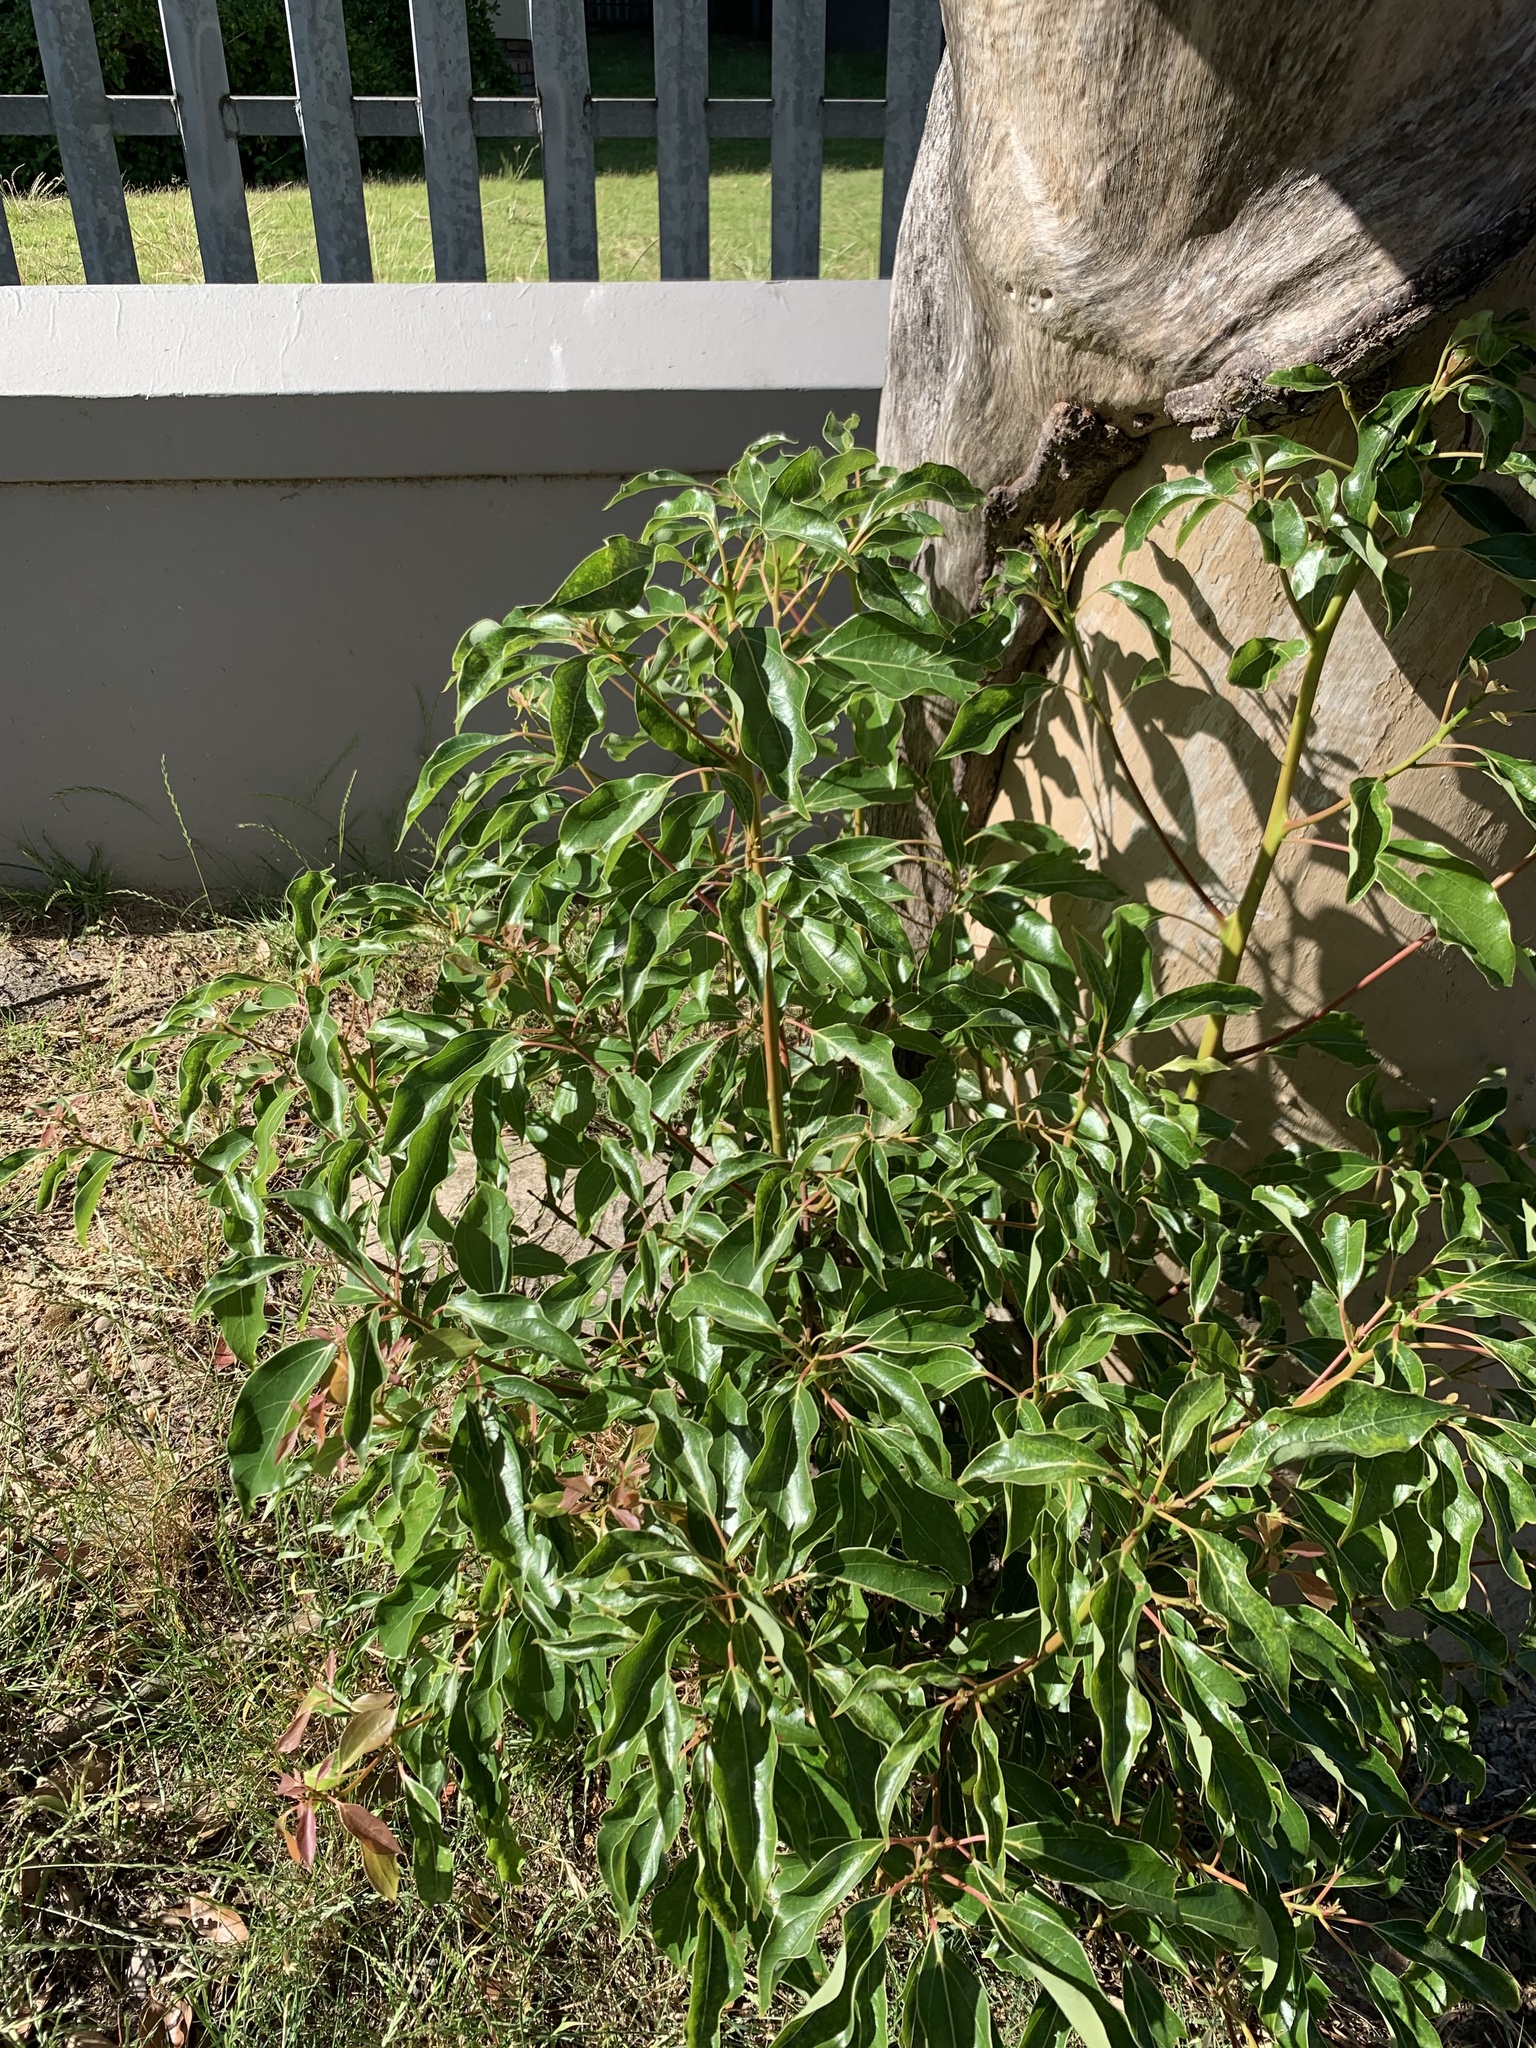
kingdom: Plantae
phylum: Tracheophyta
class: Magnoliopsida
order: Laurales
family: Lauraceae
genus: Cinnamomum
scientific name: Cinnamomum camphora
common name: Camphortree
